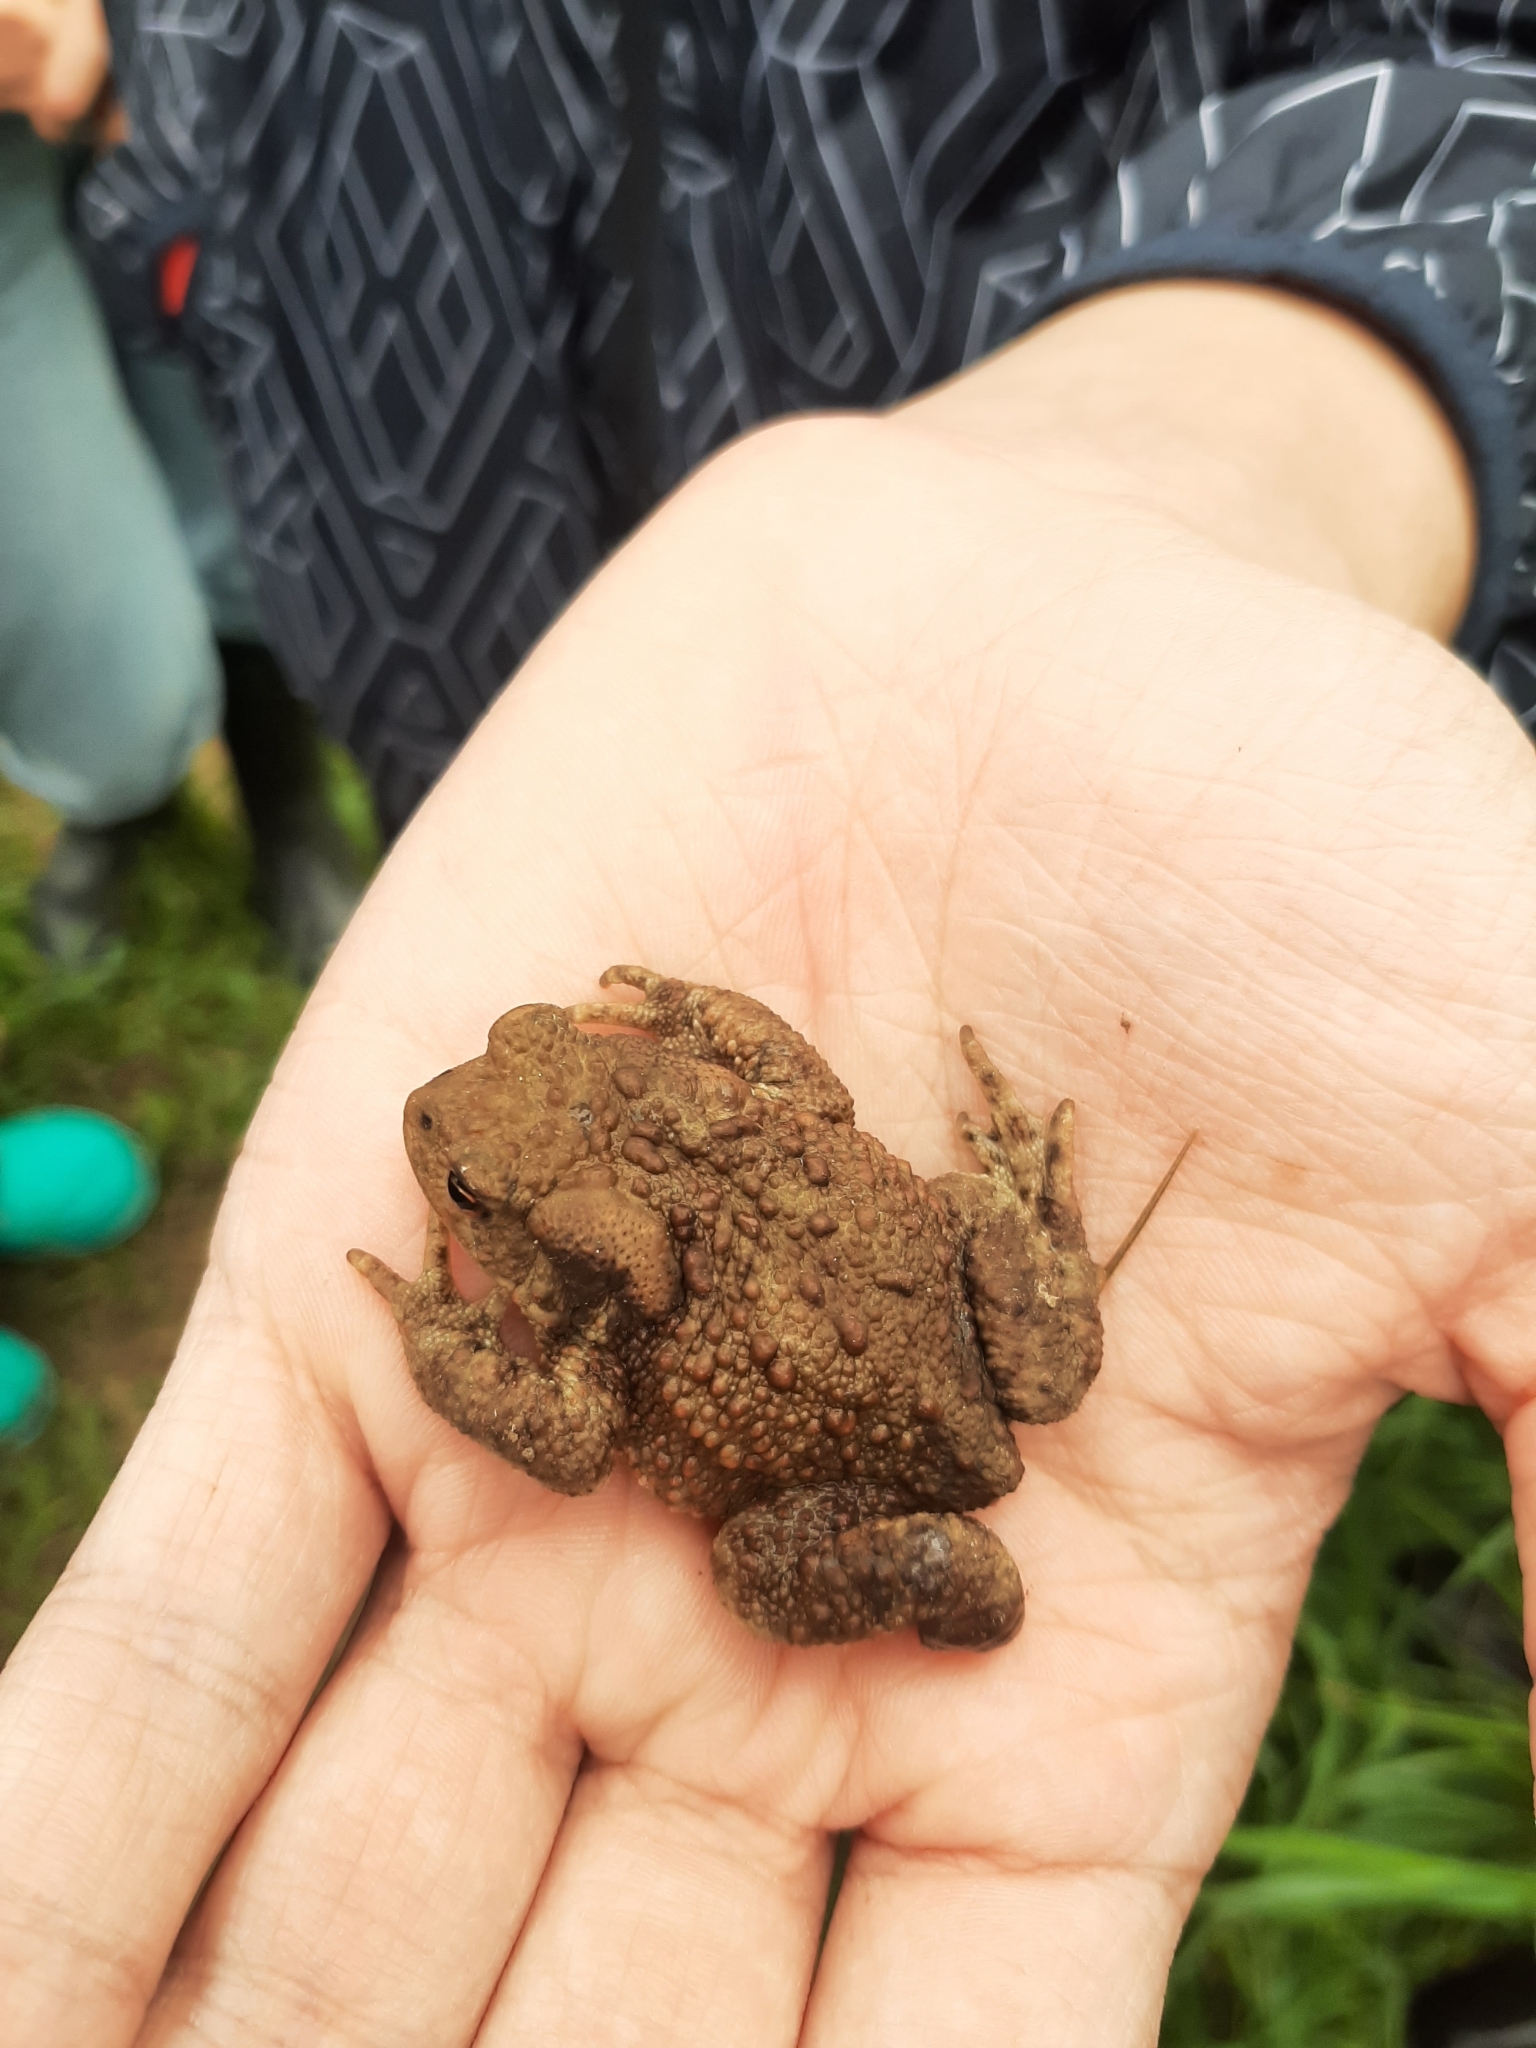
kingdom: Animalia
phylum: Chordata
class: Amphibia
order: Anura
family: Bufonidae
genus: Bufo
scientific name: Bufo bufo
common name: Common toad
